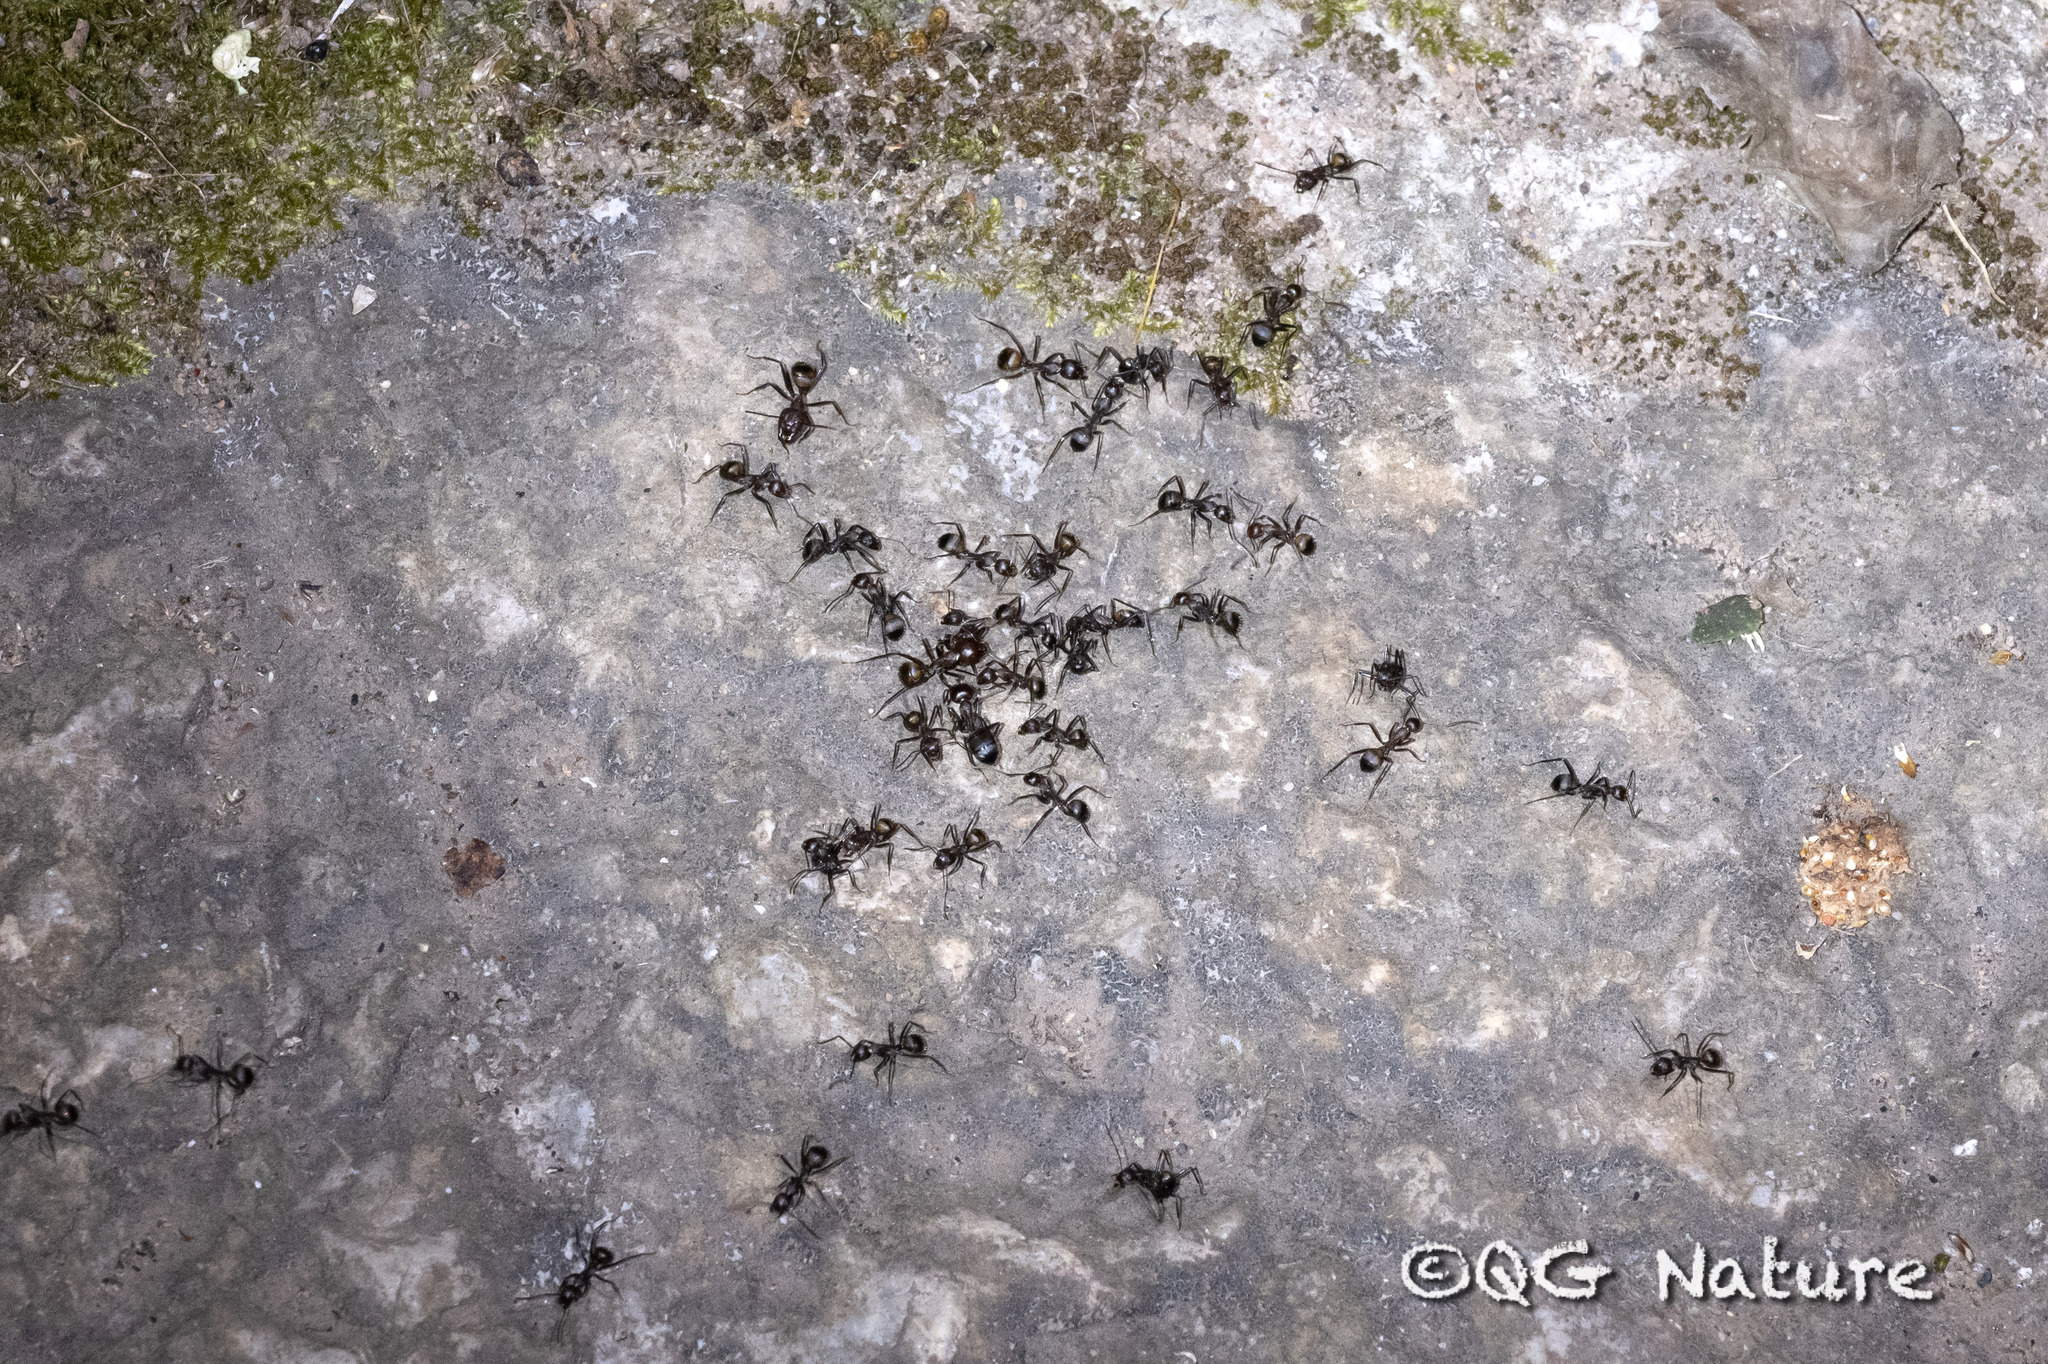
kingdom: Animalia
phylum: Arthropoda
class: Insecta
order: Hymenoptera
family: Formicidae
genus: Camponotus
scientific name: Camponotus nicobarensis
